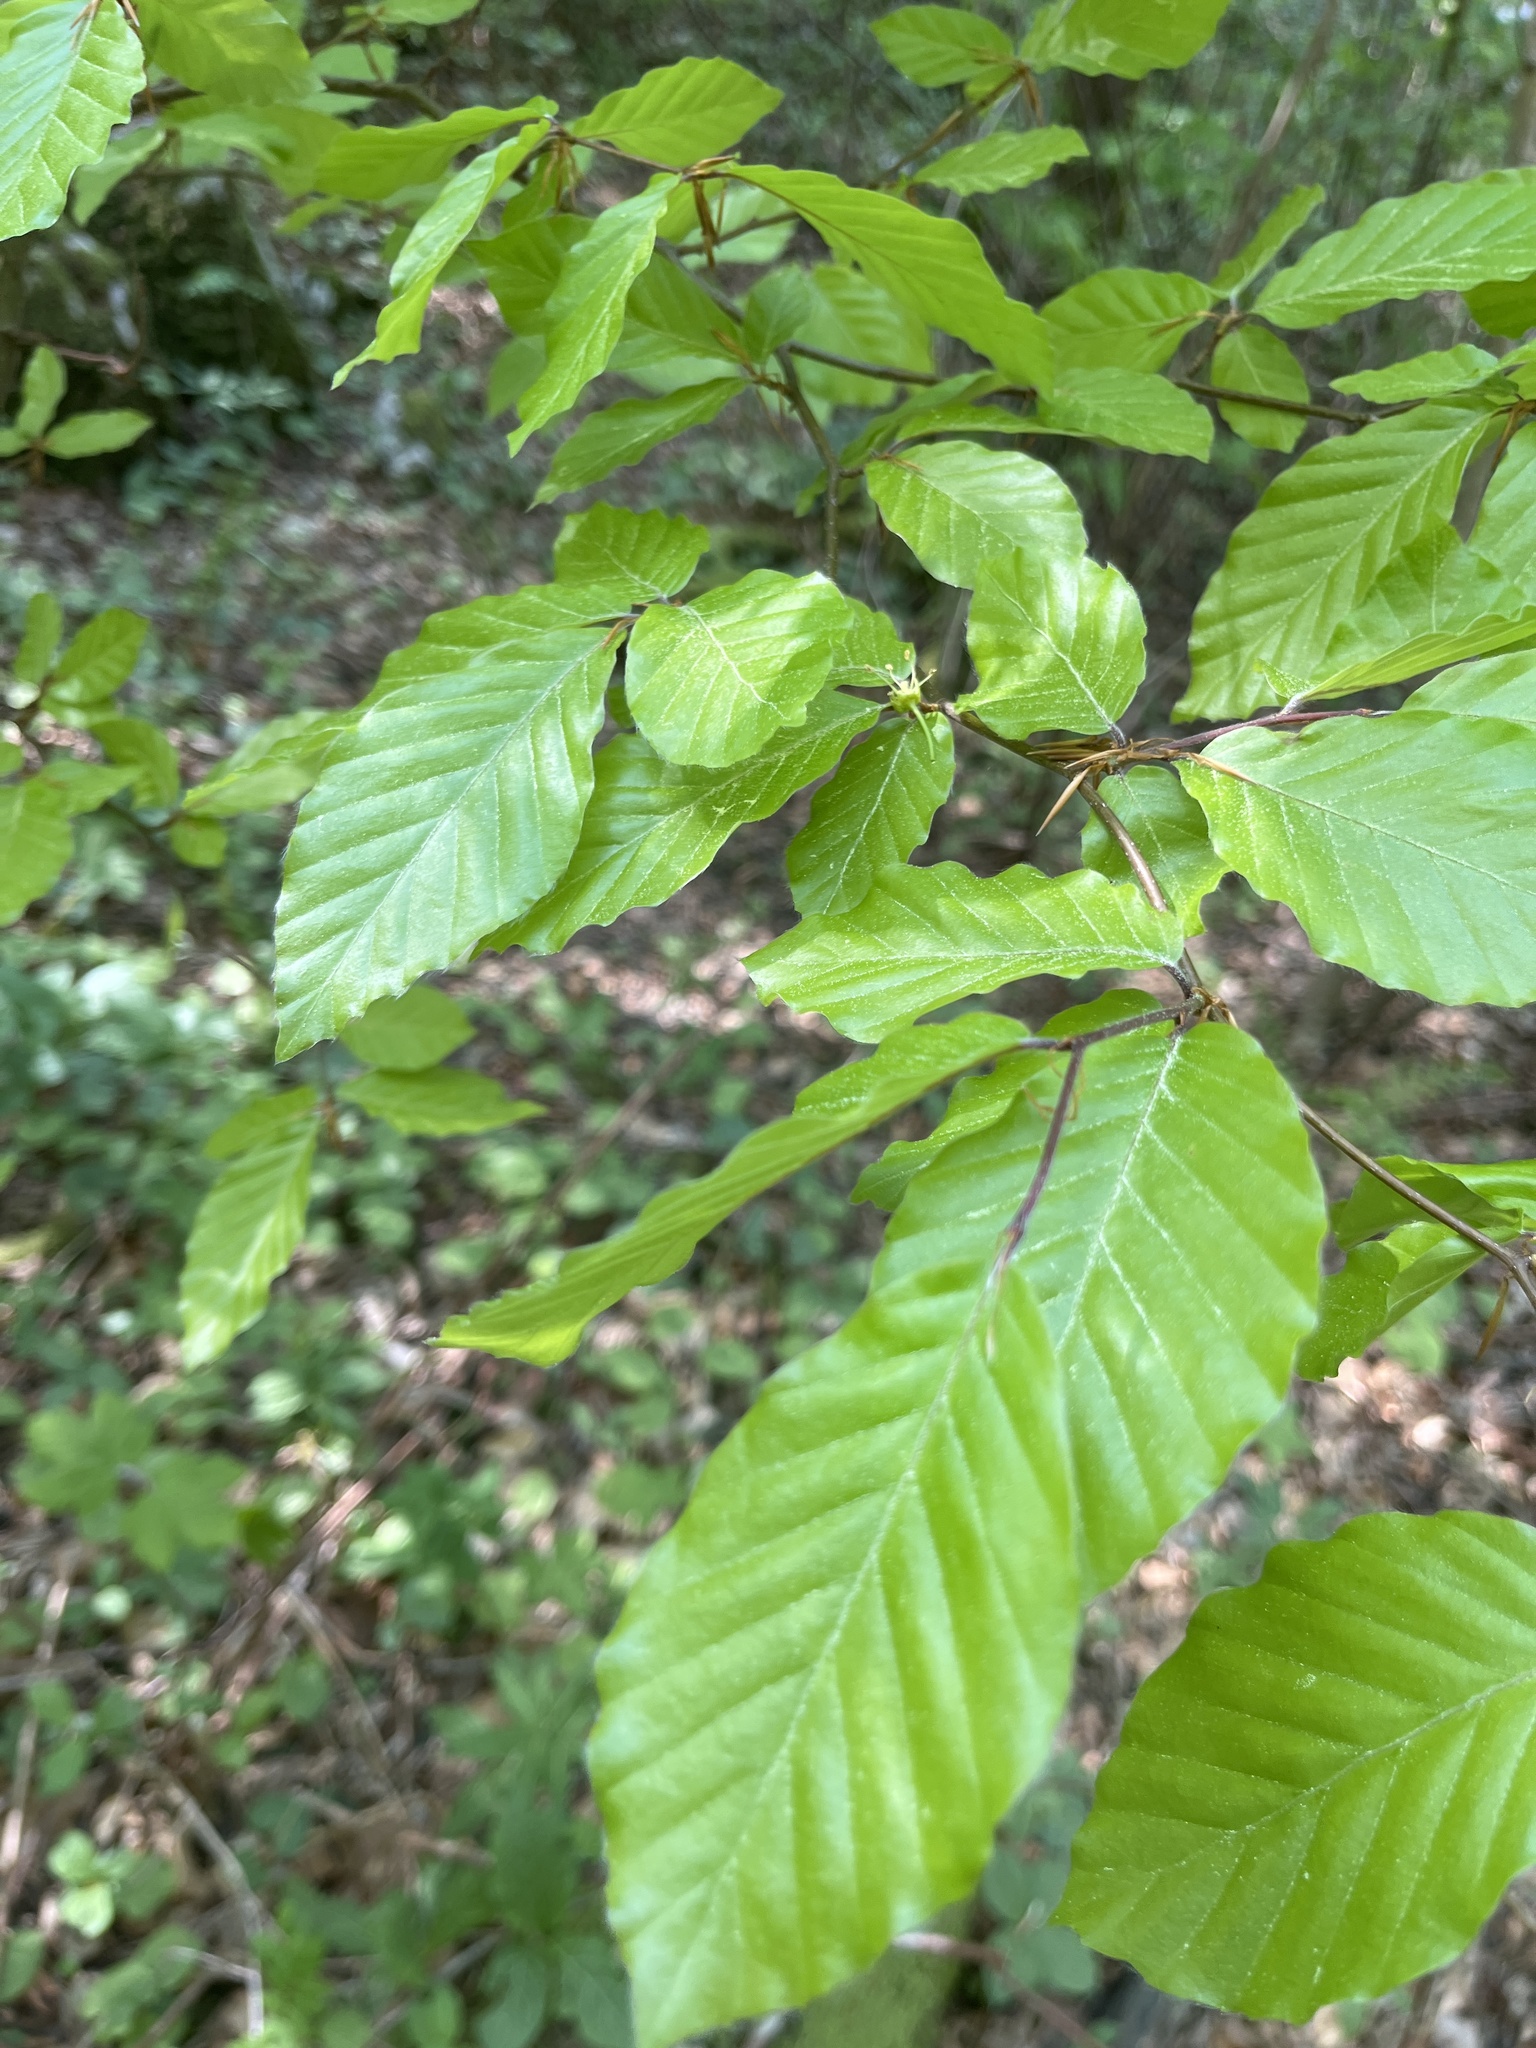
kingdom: Plantae
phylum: Tracheophyta
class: Magnoliopsida
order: Fagales
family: Fagaceae
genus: Fagus
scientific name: Fagus sylvatica
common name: Beech
